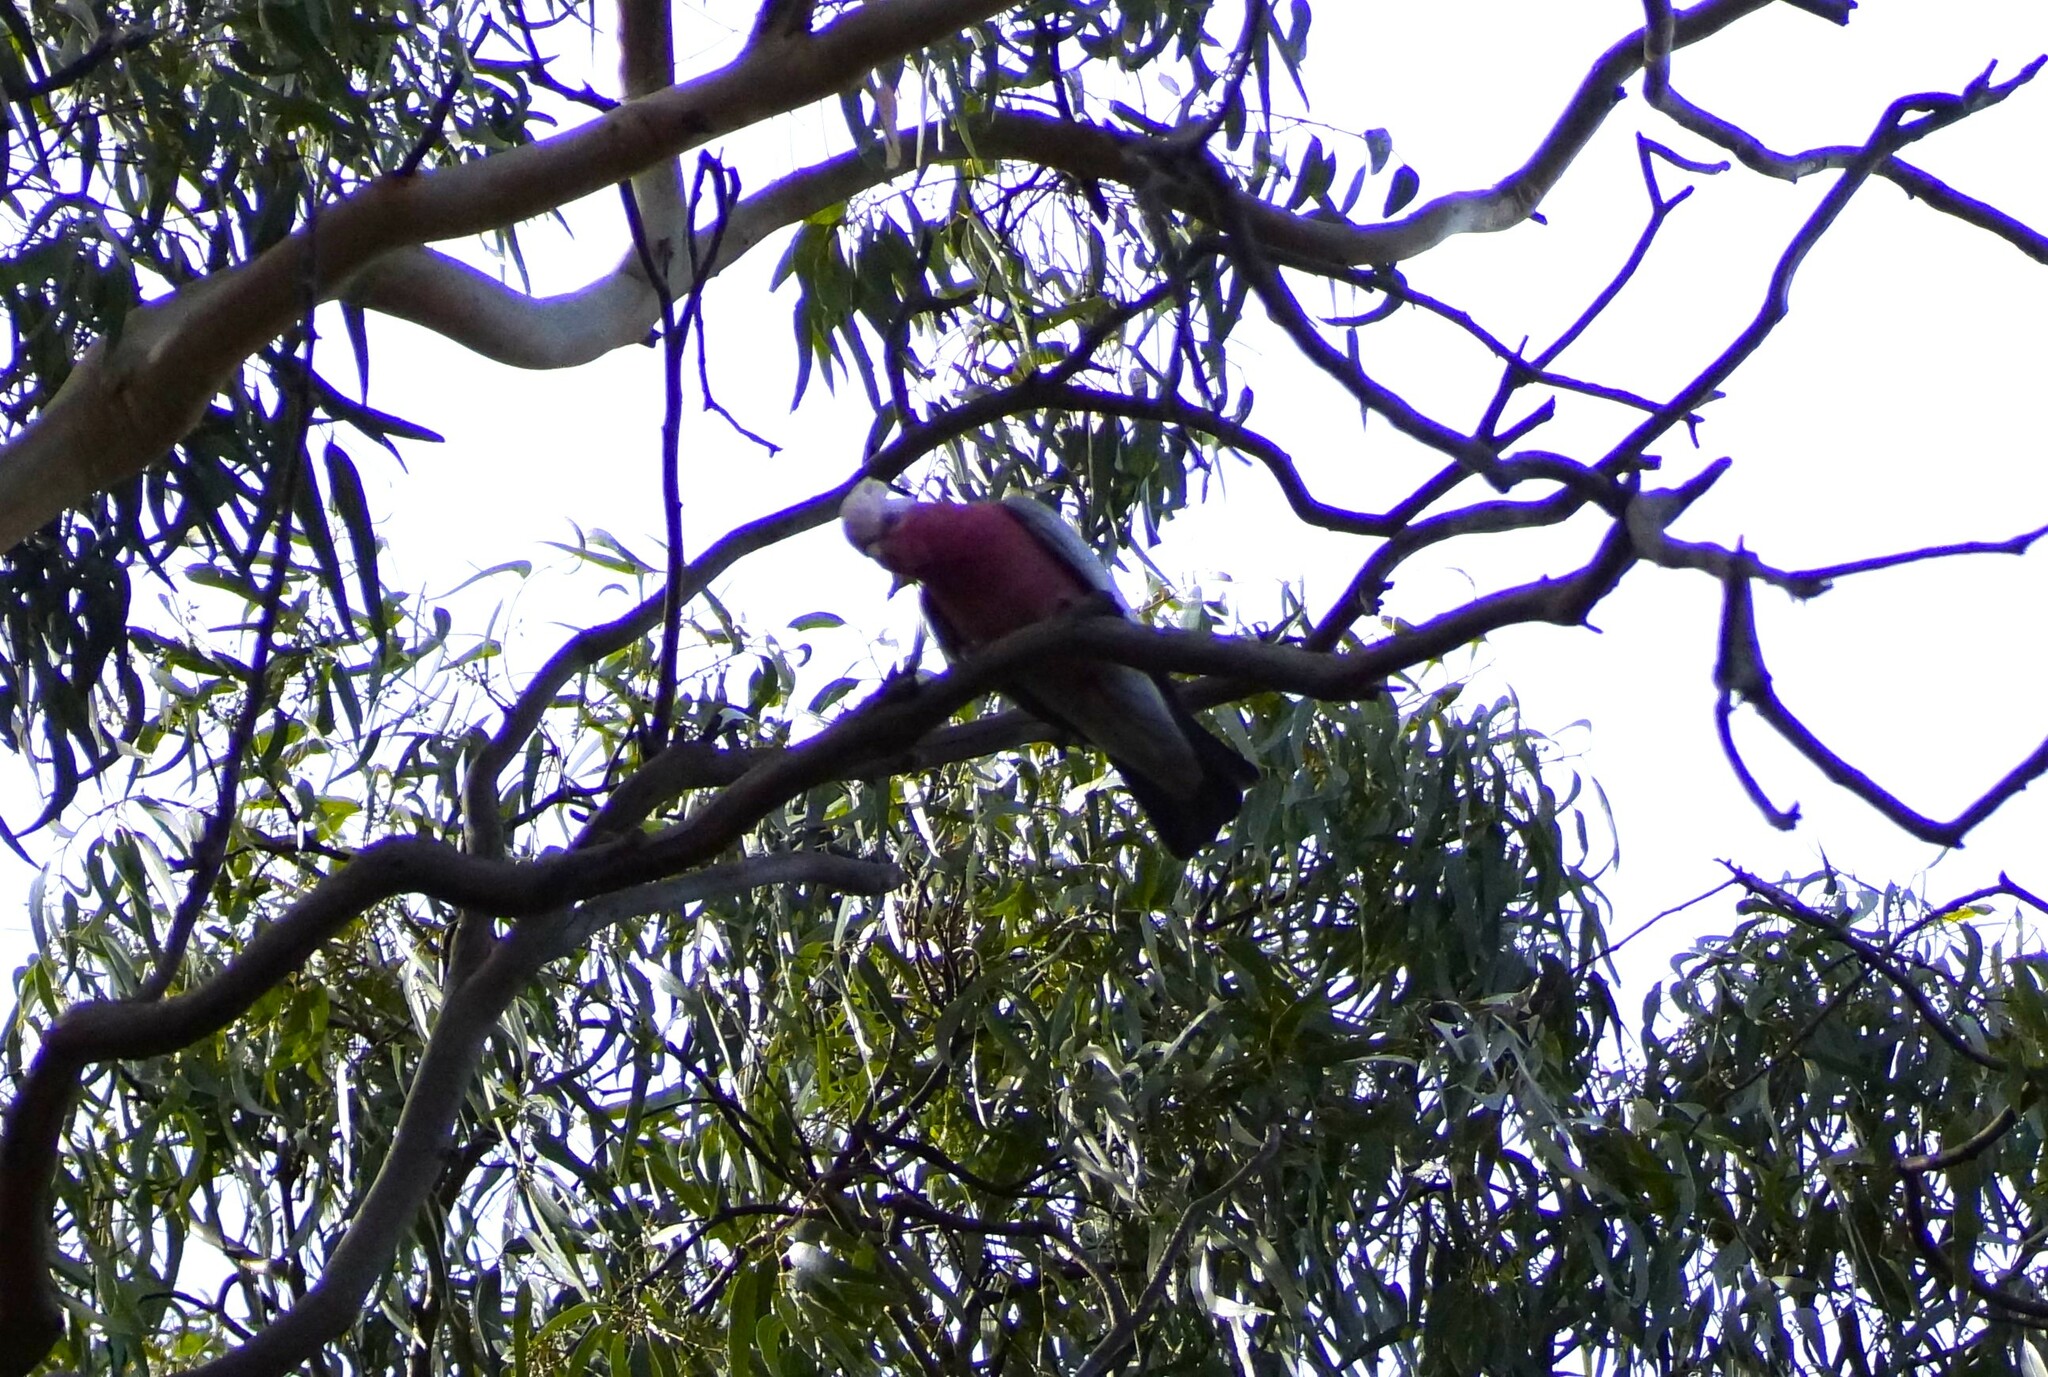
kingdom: Animalia
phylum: Chordata
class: Aves
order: Psittaciformes
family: Psittacidae
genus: Eolophus
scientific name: Eolophus roseicapilla
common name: Galah
